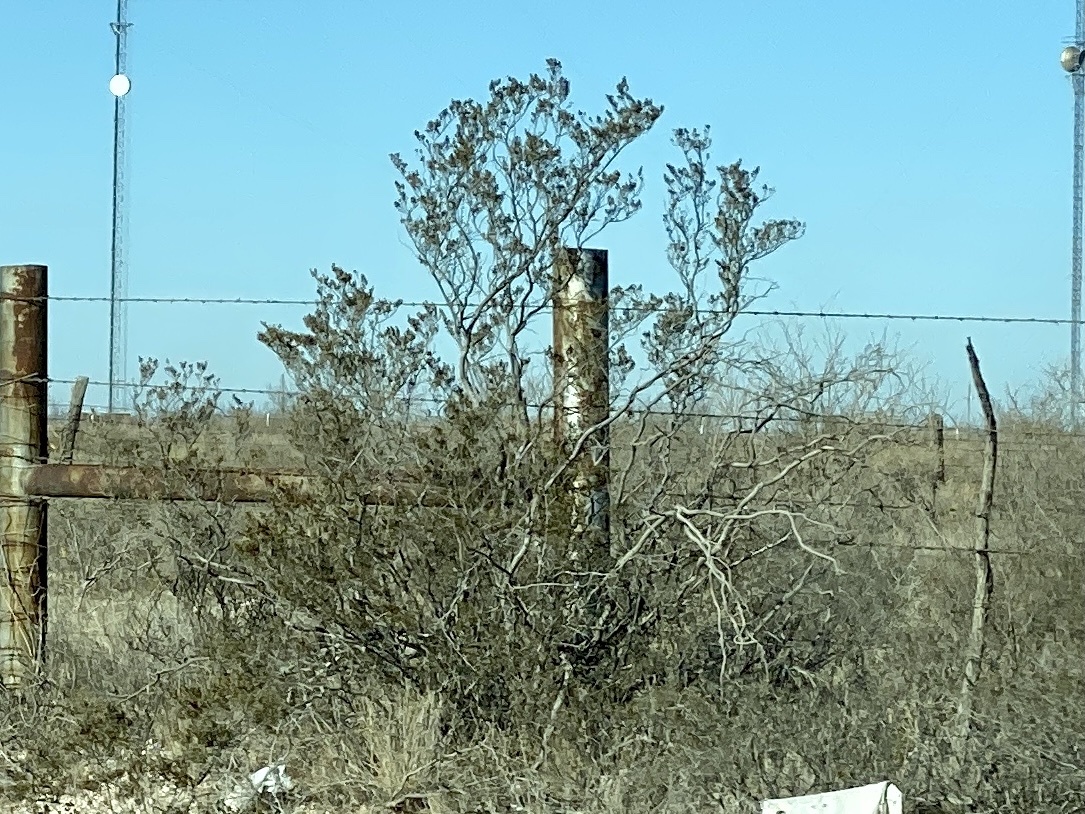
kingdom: Plantae
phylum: Tracheophyta
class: Magnoliopsida
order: Zygophyllales
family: Zygophyllaceae
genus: Larrea
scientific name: Larrea tridentata
